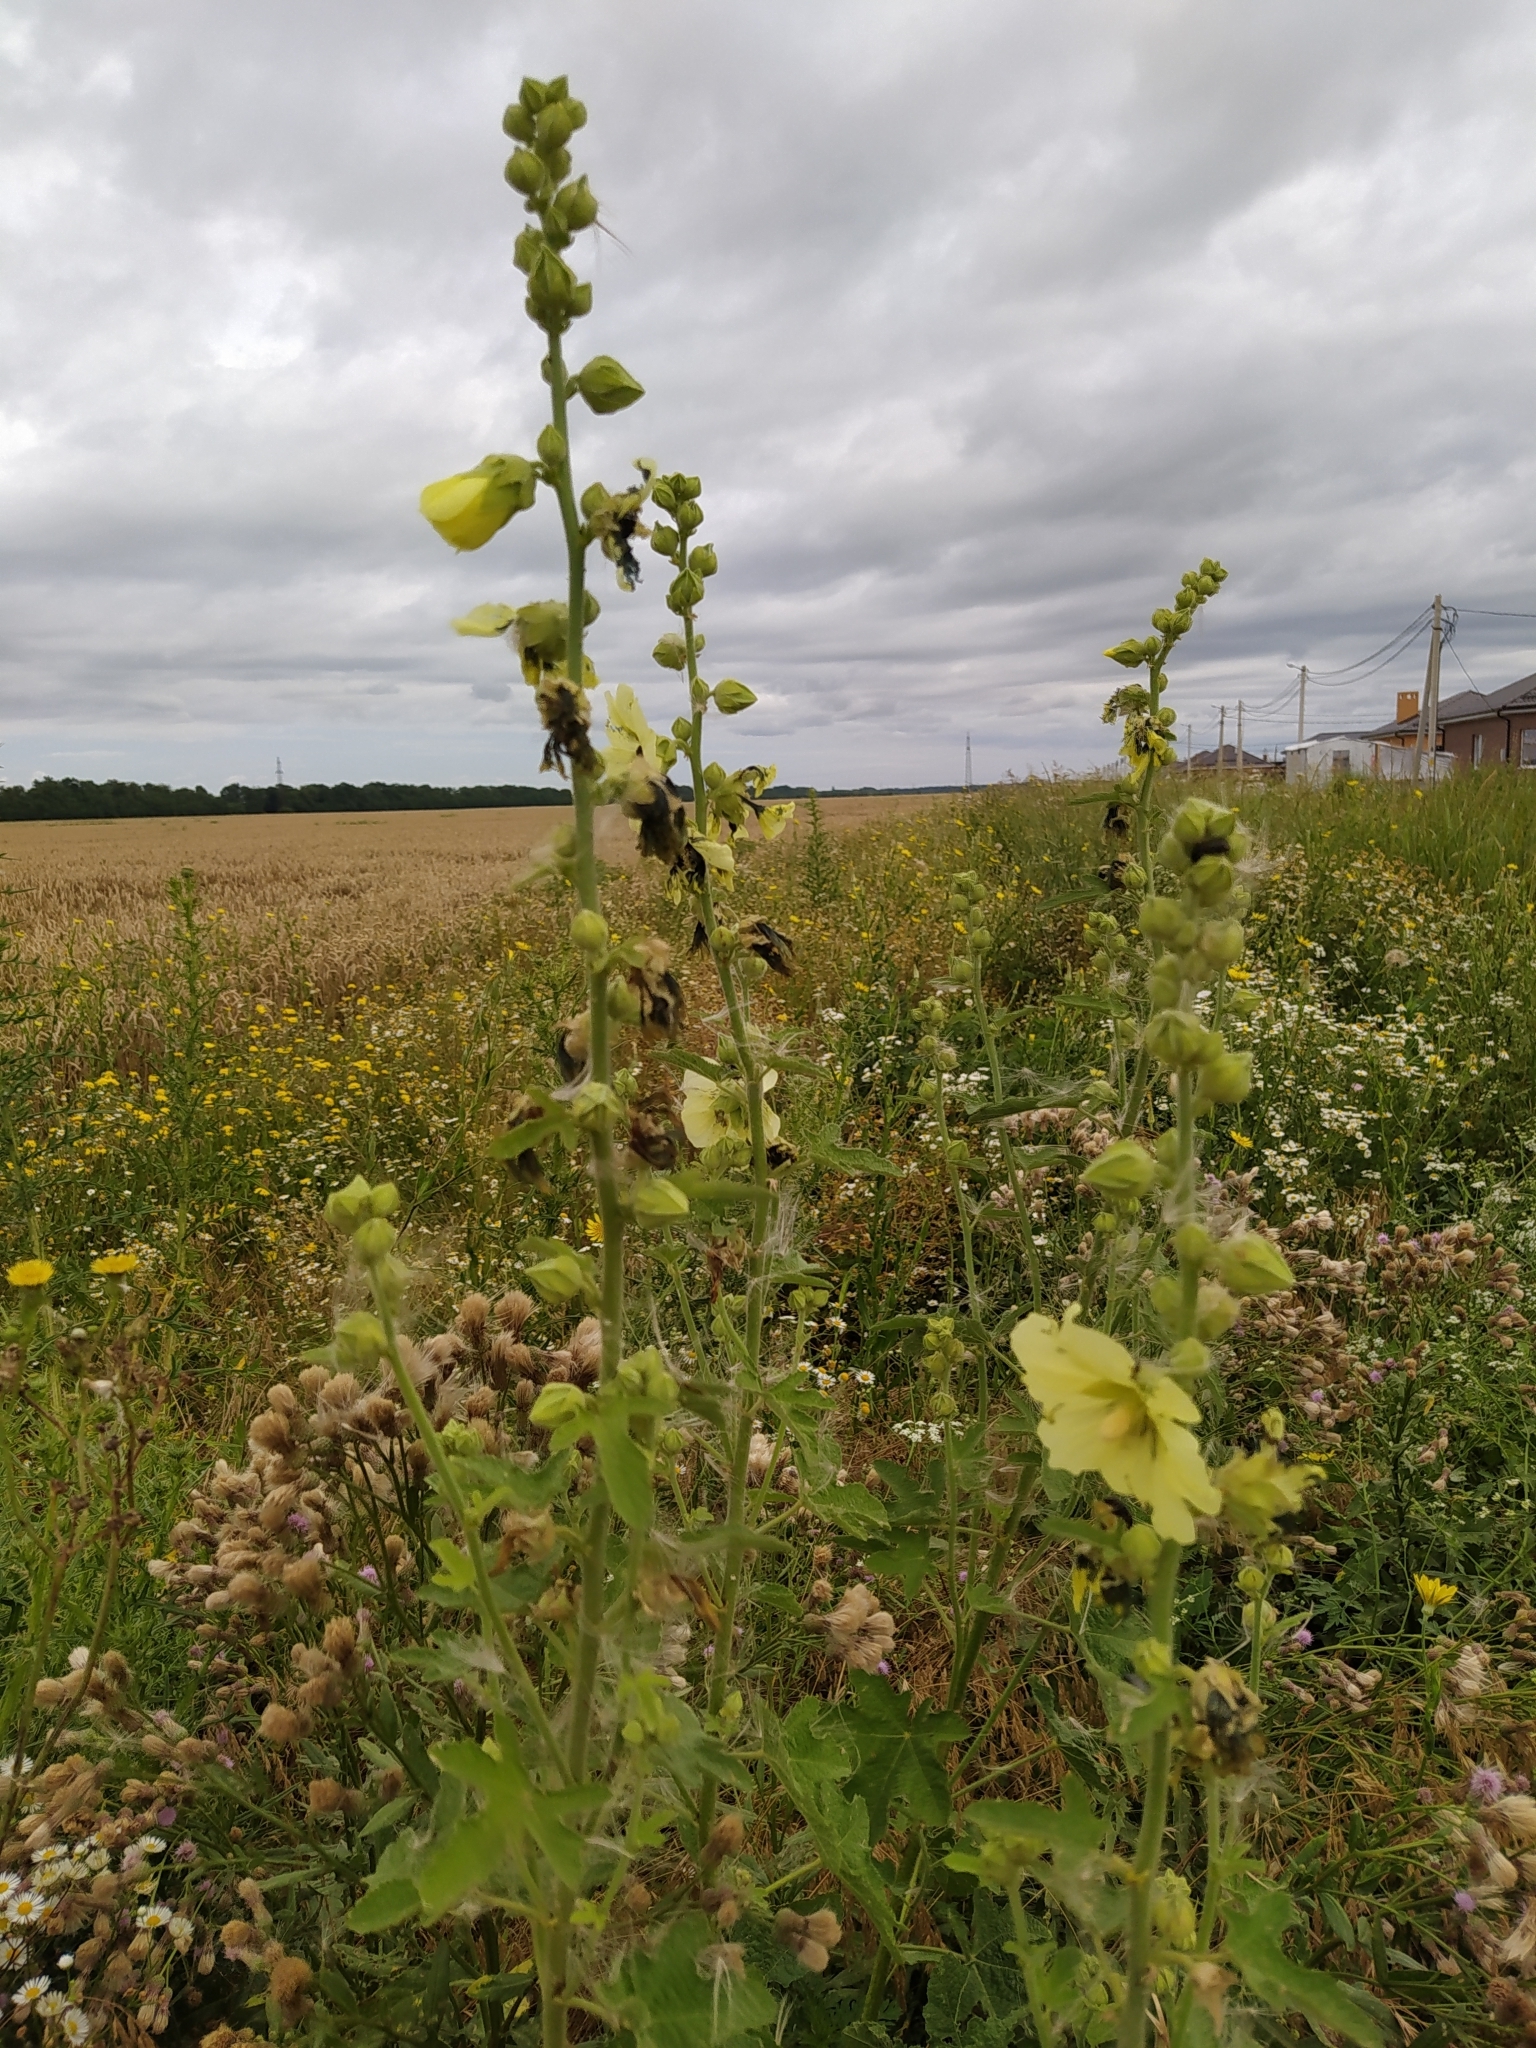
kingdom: Plantae
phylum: Tracheophyta
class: Magnoliopsida
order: Malvales
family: Malvaceae
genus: Alcea
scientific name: Alcea rugosa
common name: Russian hollyhock
